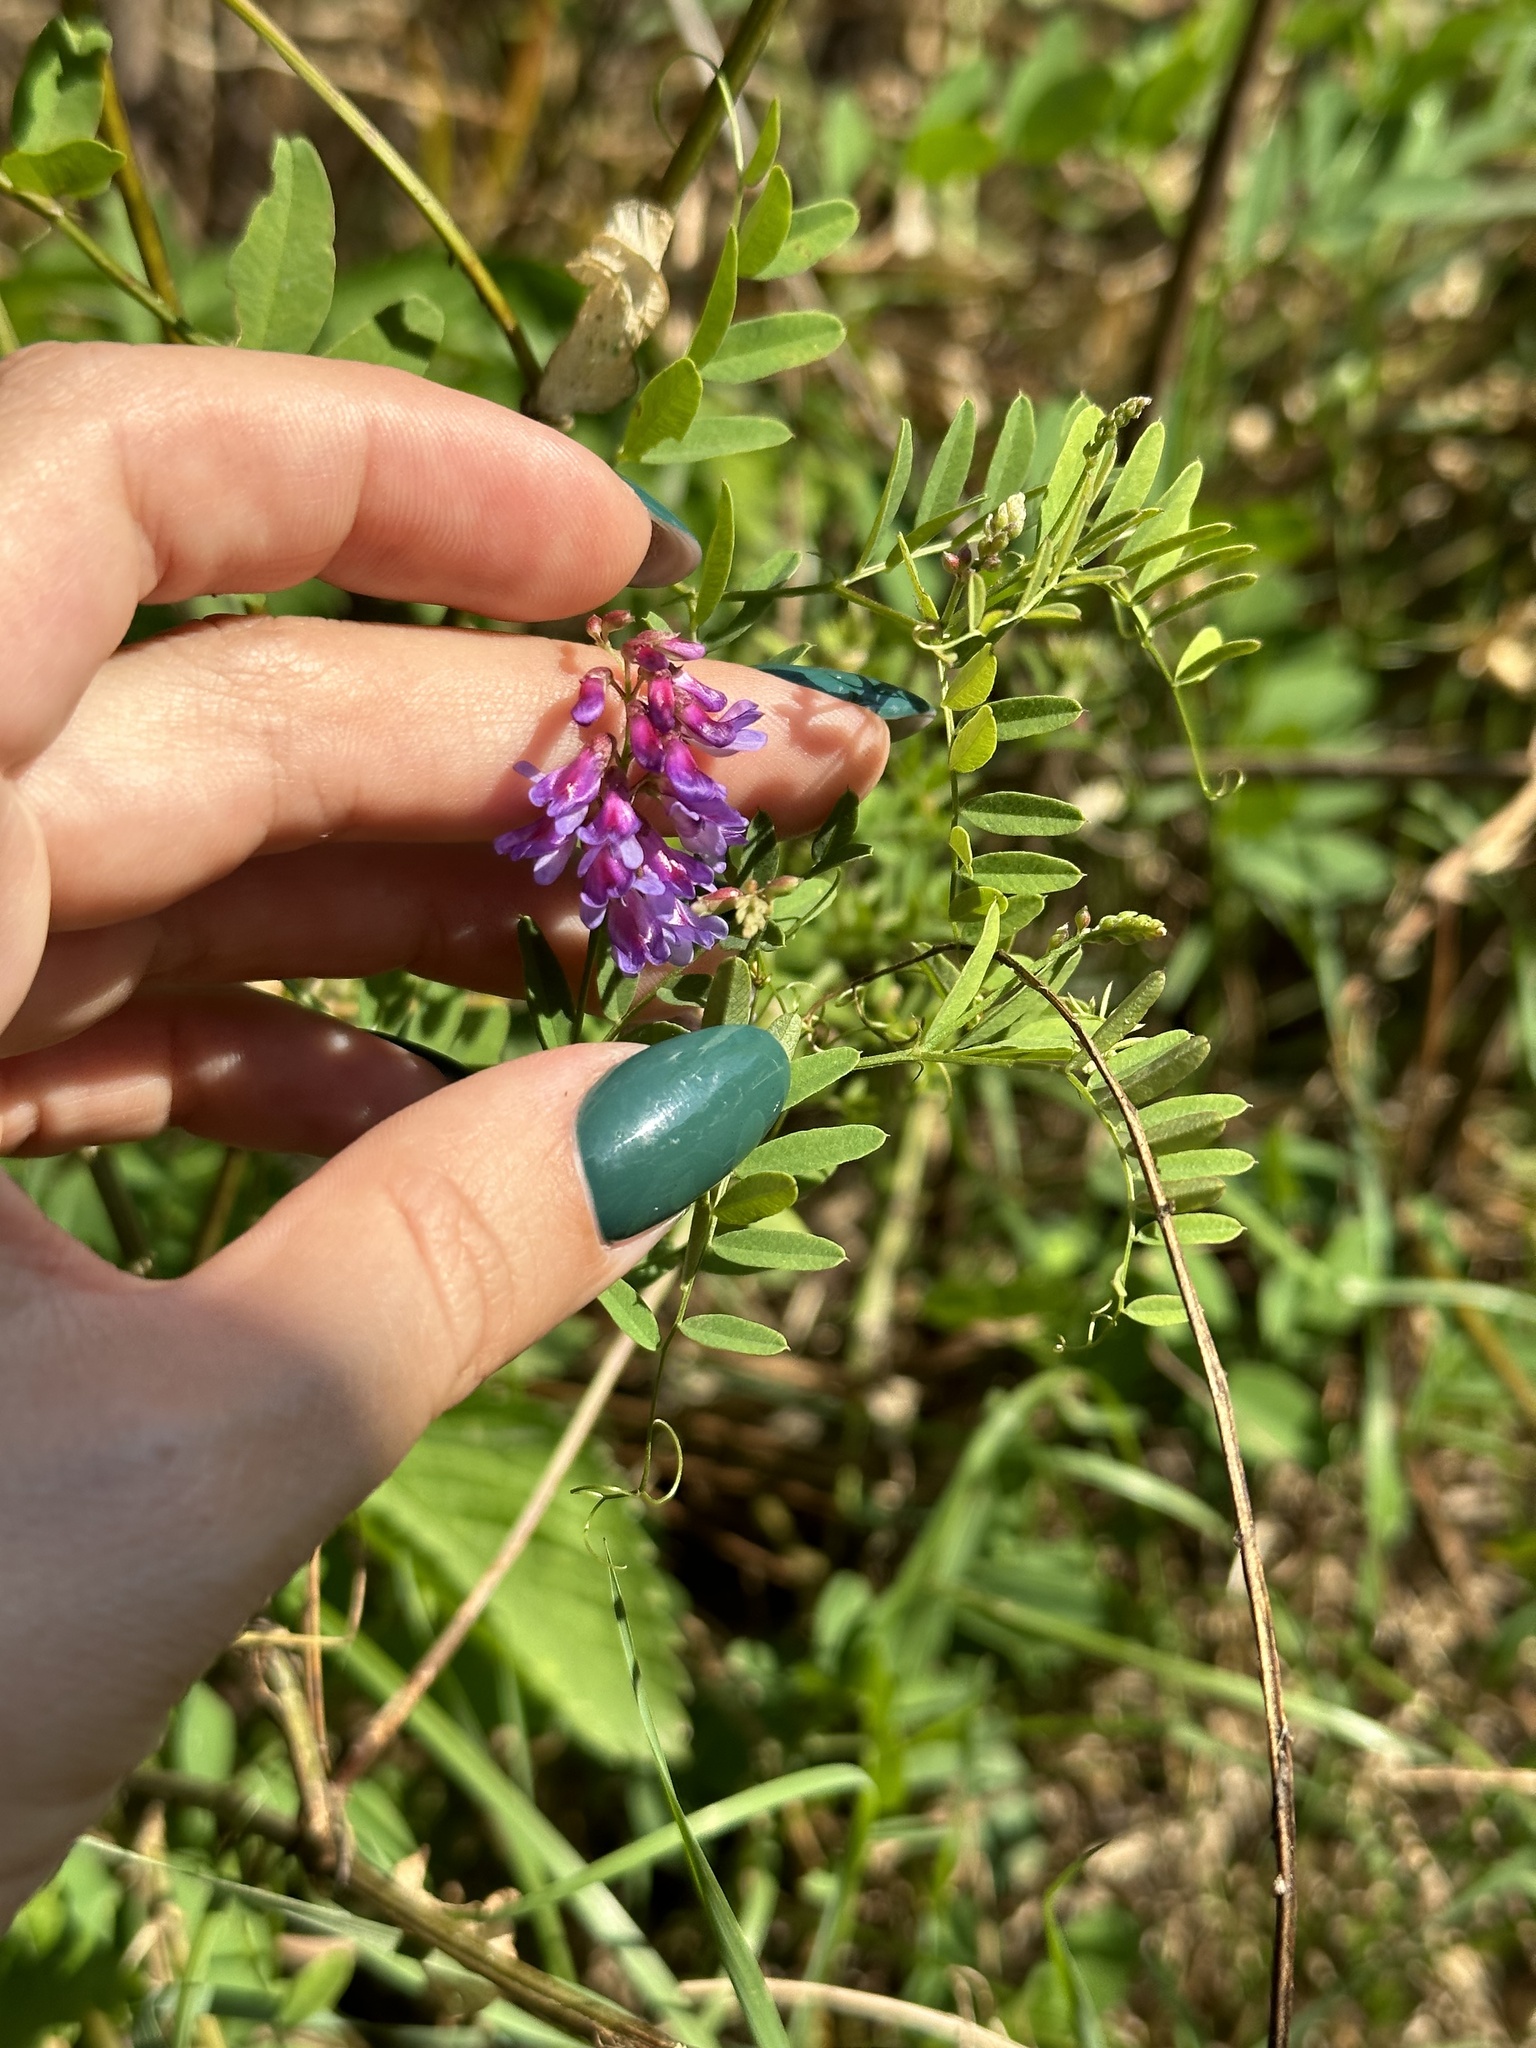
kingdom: Plantae
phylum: Tracheophyta
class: Magnoliopsida
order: Fabales
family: Fabaceae
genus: Vicia
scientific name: Vicia amoena
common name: Cheder ebs
